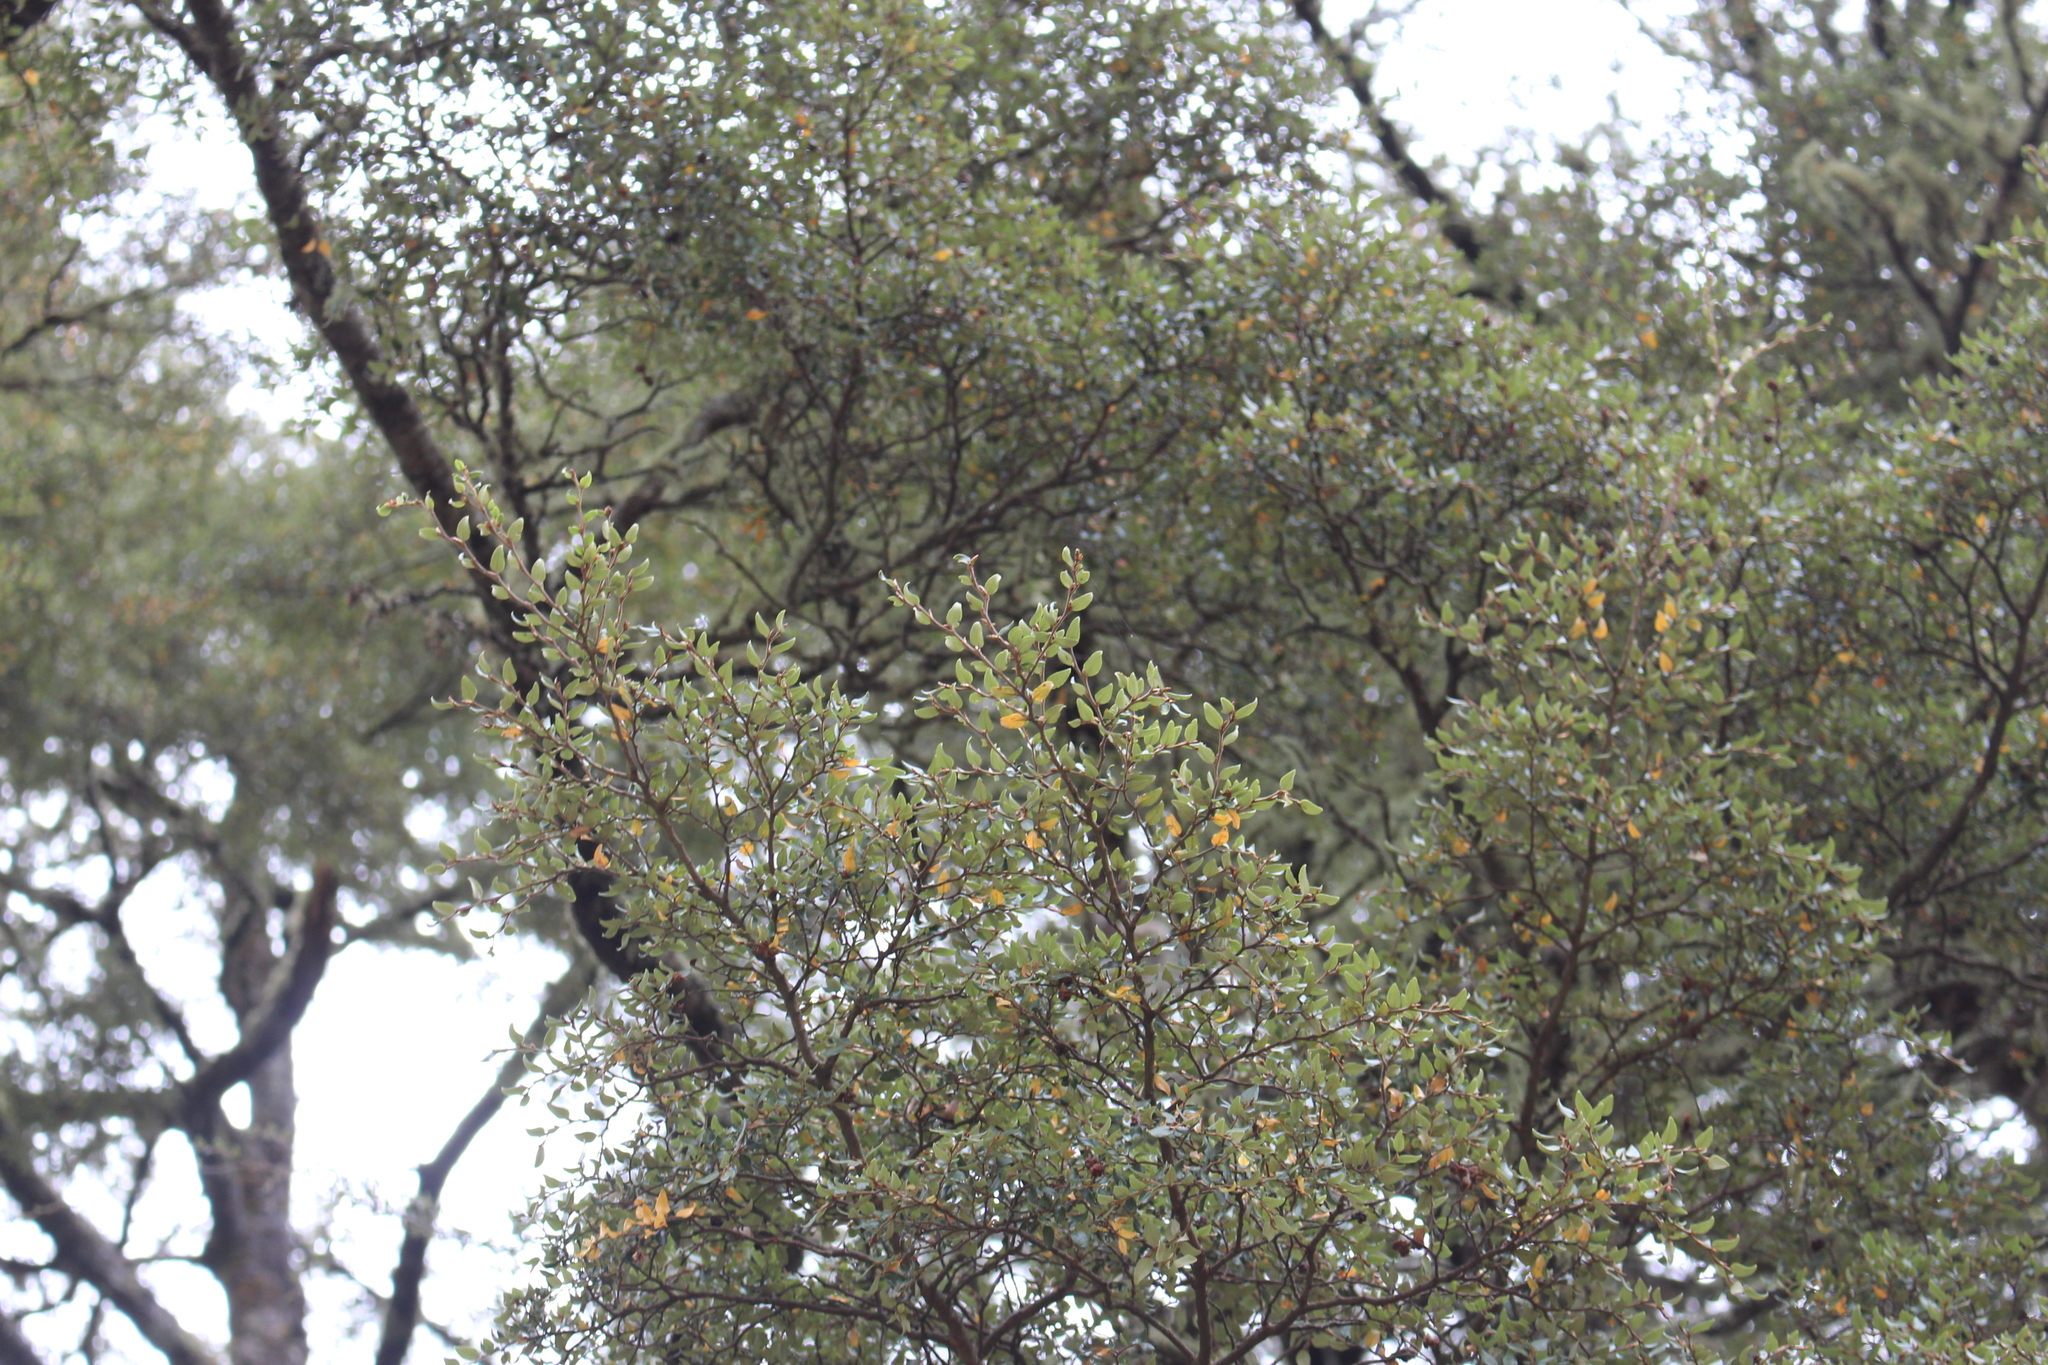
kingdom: Plantae
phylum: Tracheophyta
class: Magnoliopsida
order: Fagales
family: Nothofagaceae
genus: Nothofagus
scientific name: Nothofagus cliffortioides
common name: Mountain beech
